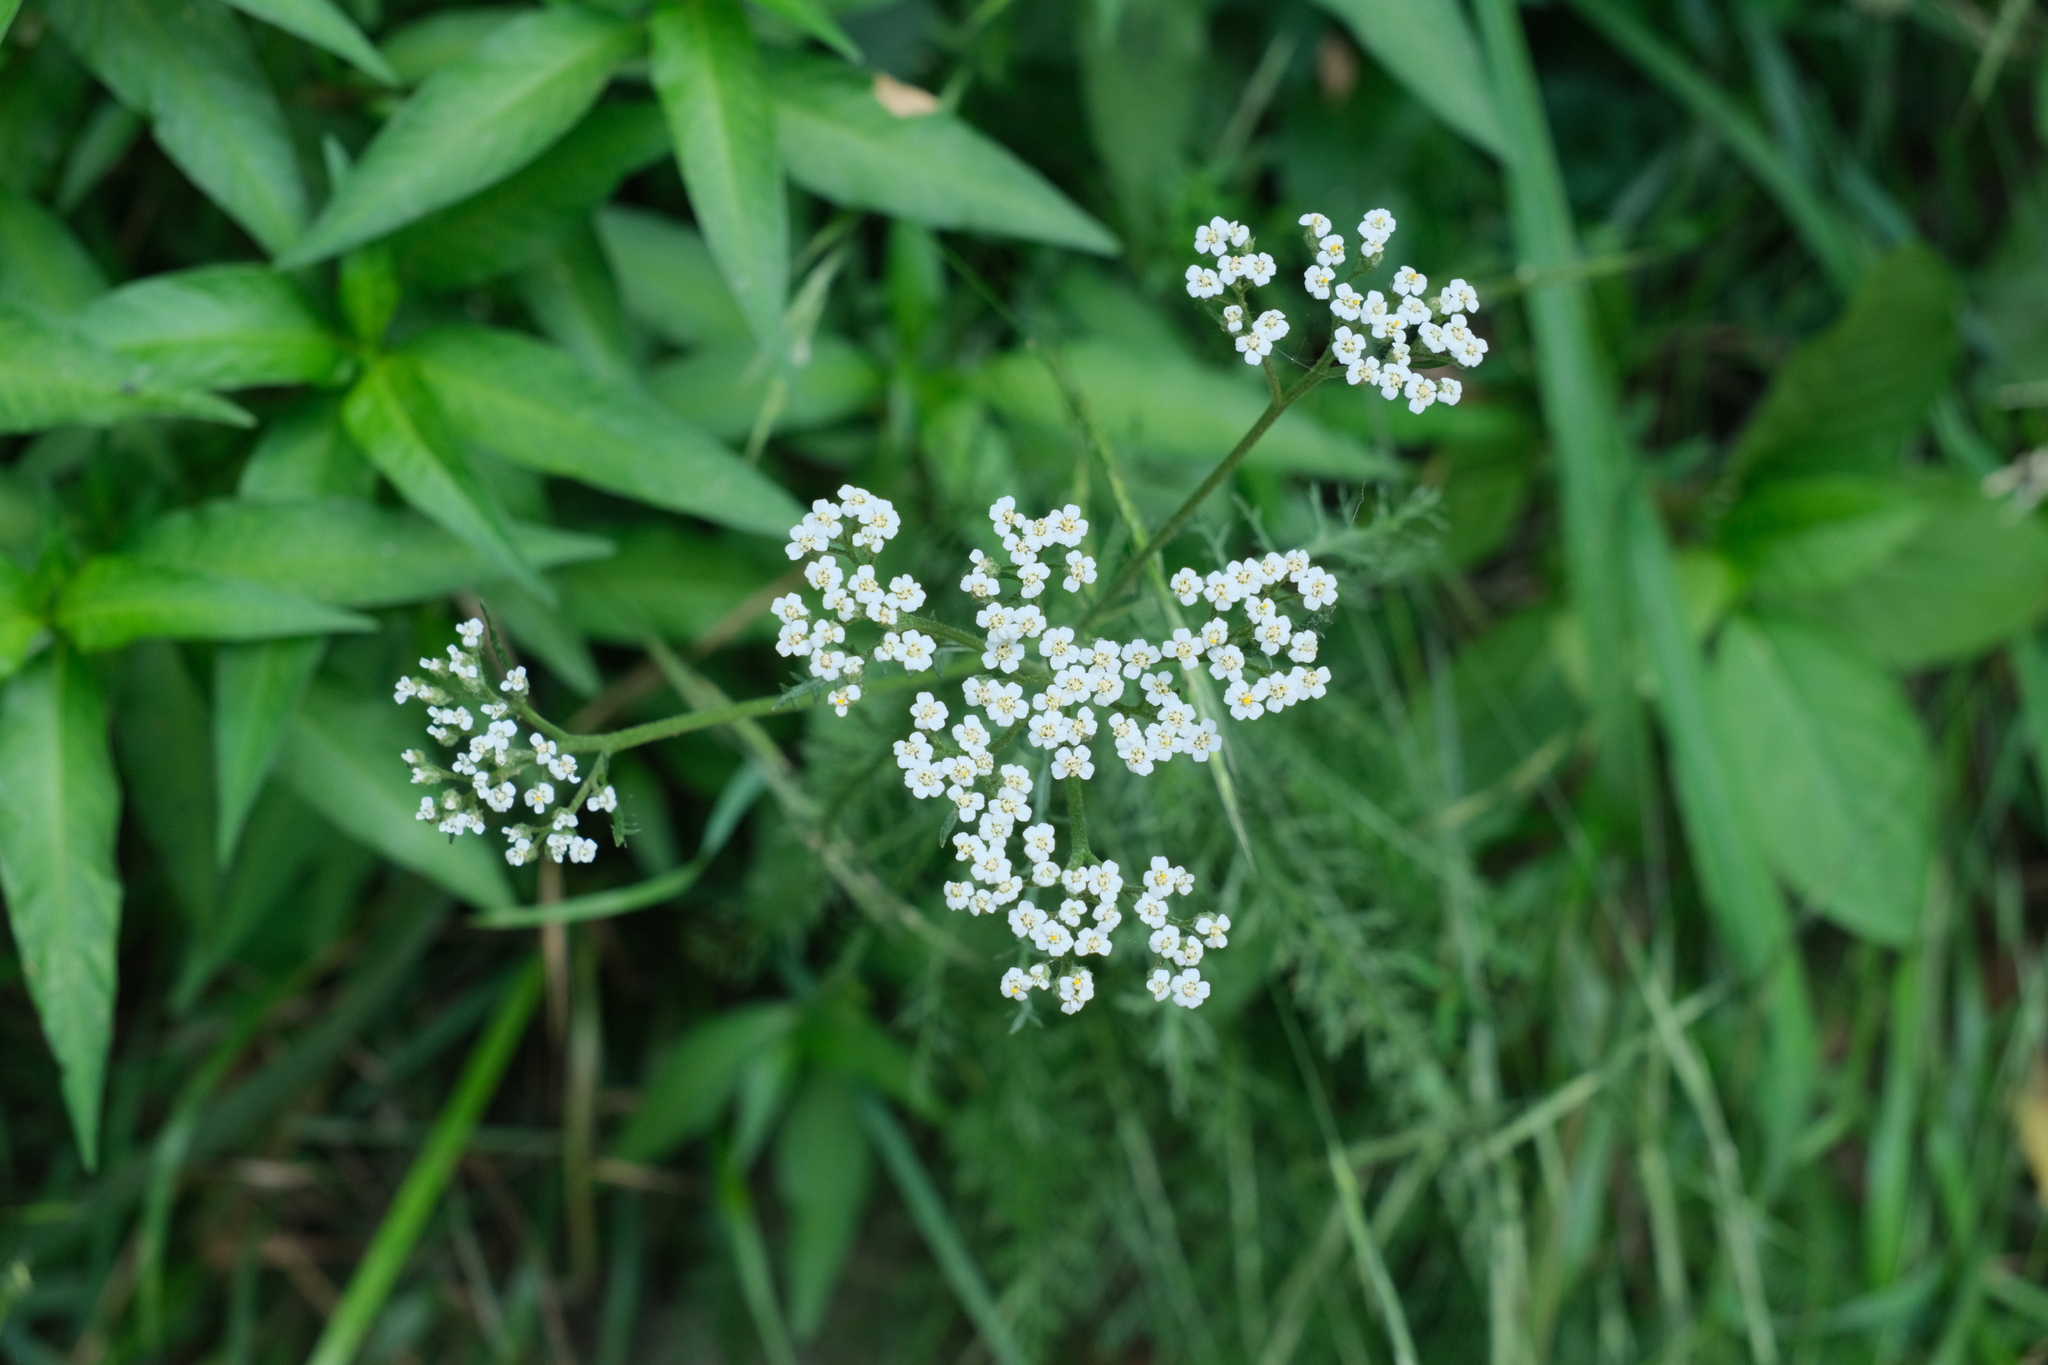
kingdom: Plantae
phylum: Tracheophyta
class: Magnoliopsida
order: Apiales
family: Apiaceae
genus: Torilis
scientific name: Torilis arvensis
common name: Spreading hedge-parsley
